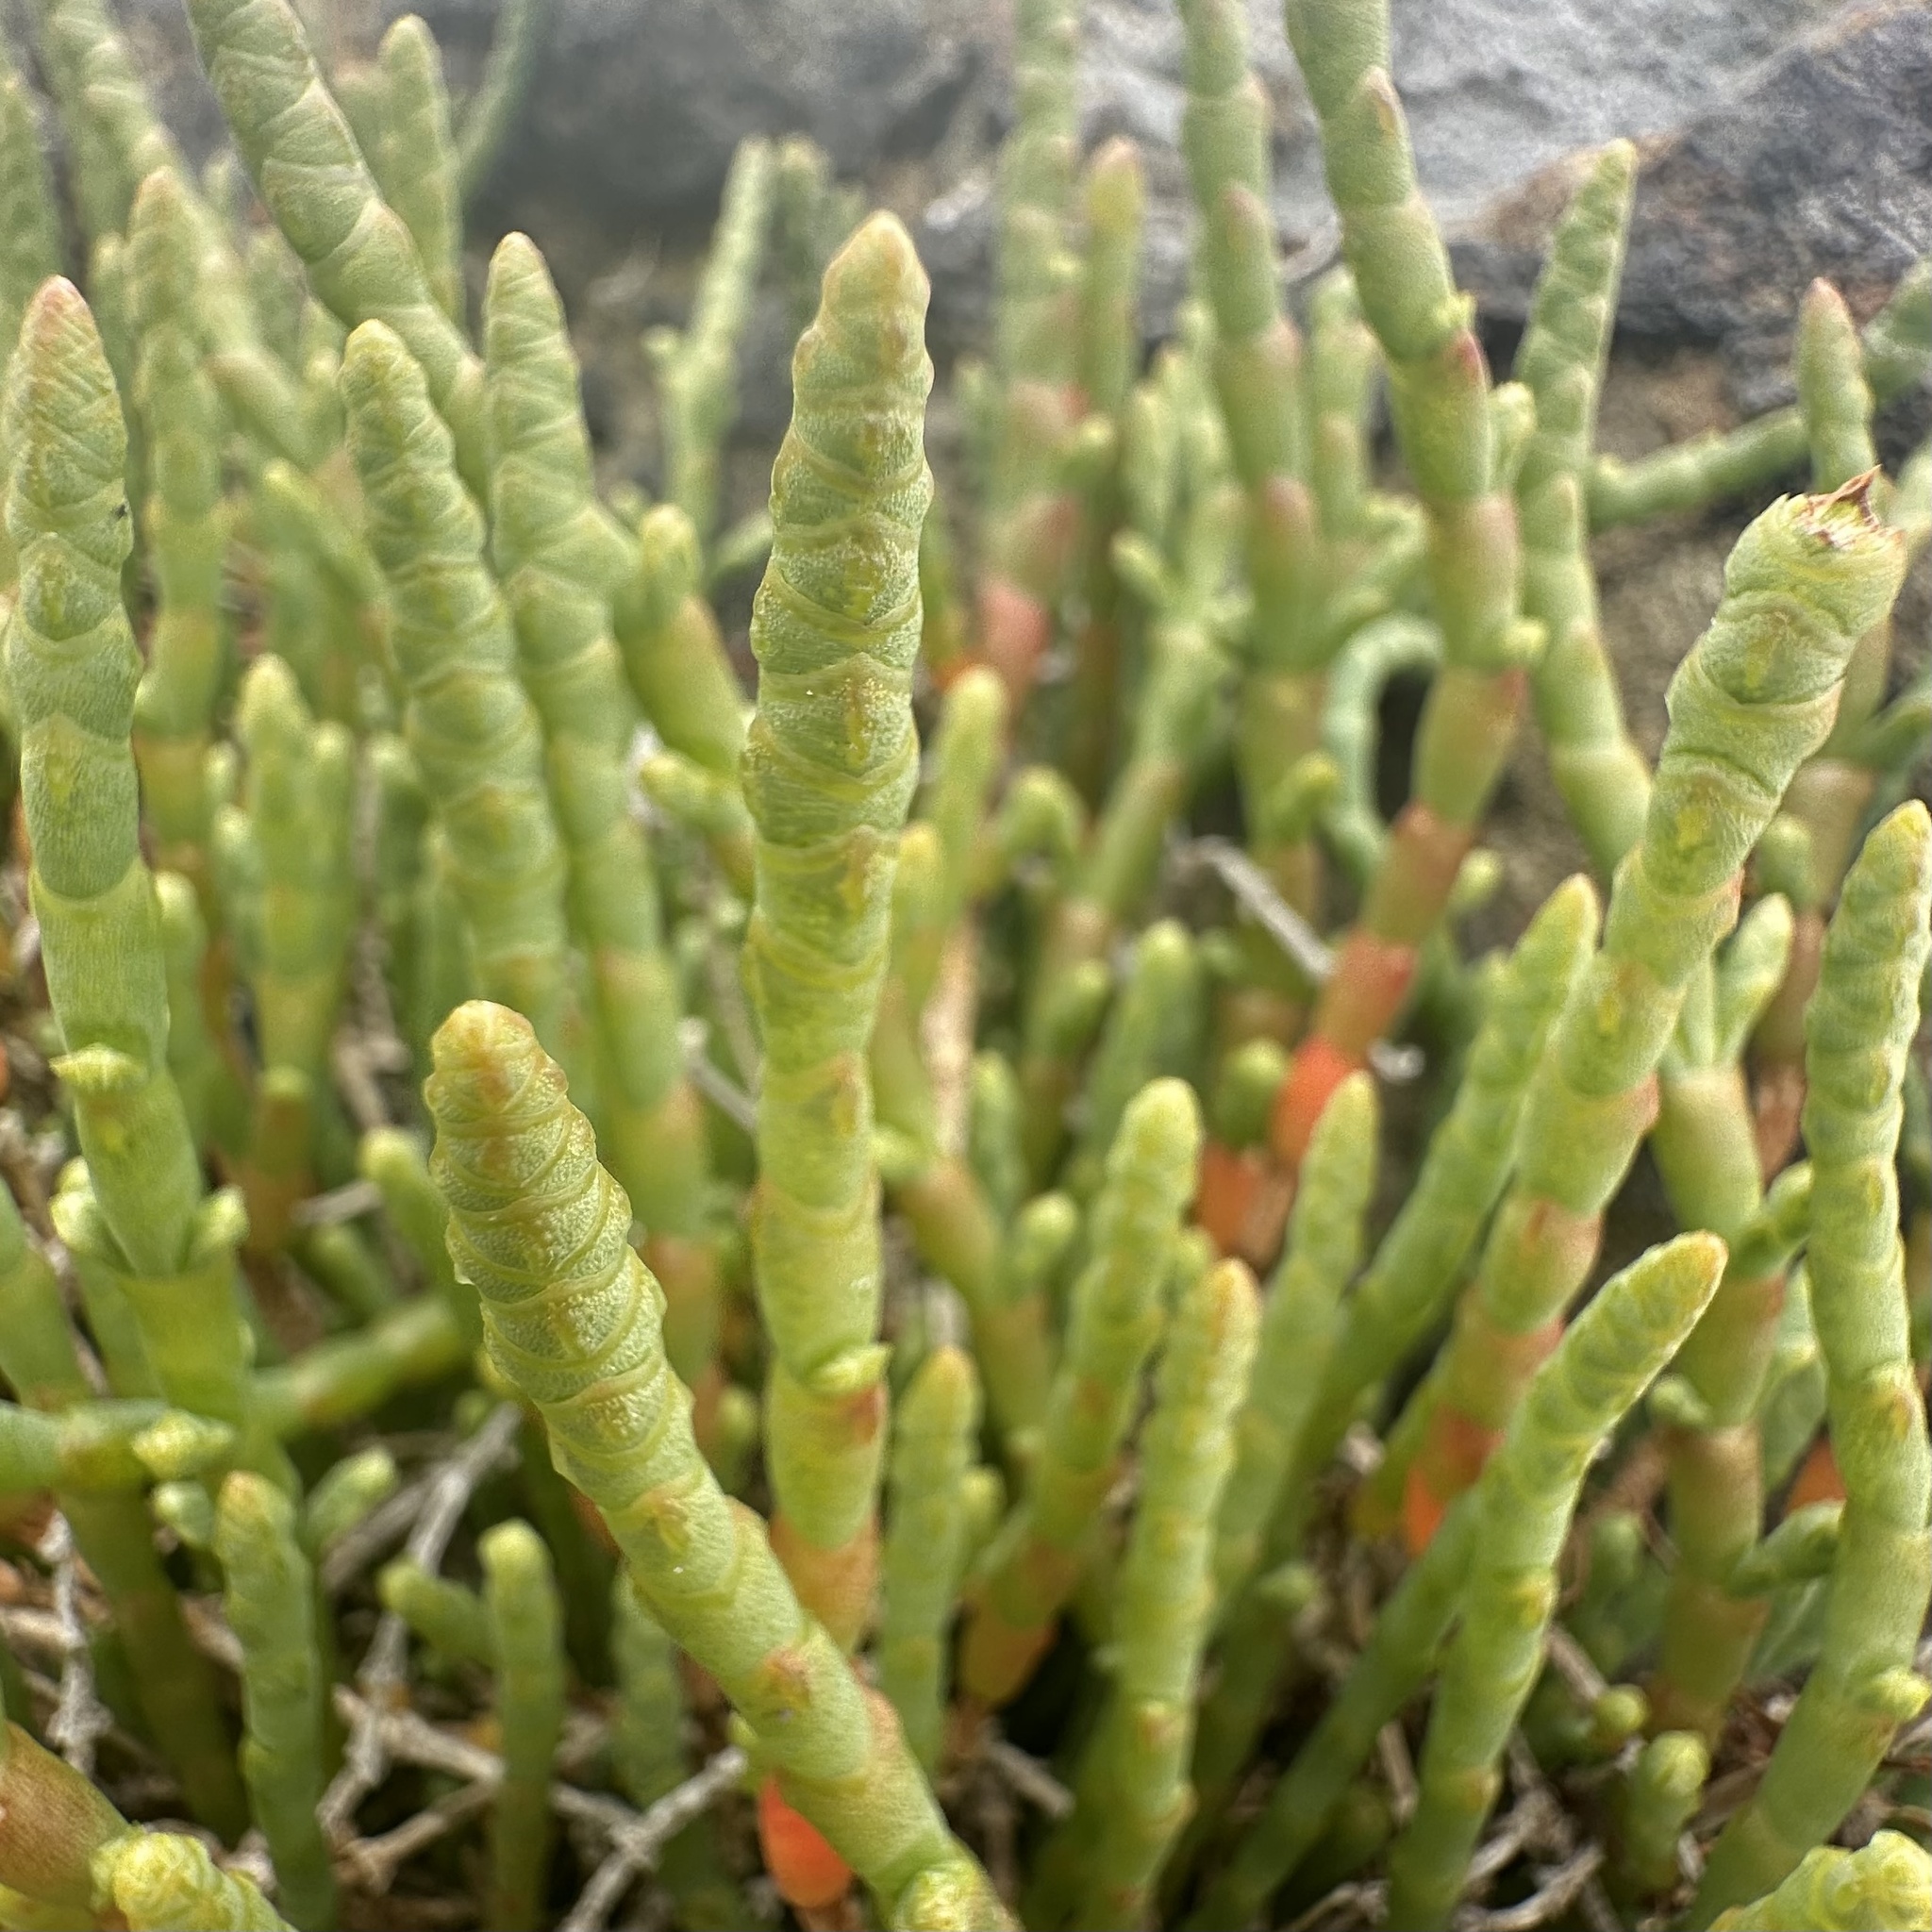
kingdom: Plantae
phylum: Tracheophyta
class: Magnoliopsida
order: Caryophyllales
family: Amaranthaceae
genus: Salicornia
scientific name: Salicornia quinqueflora
